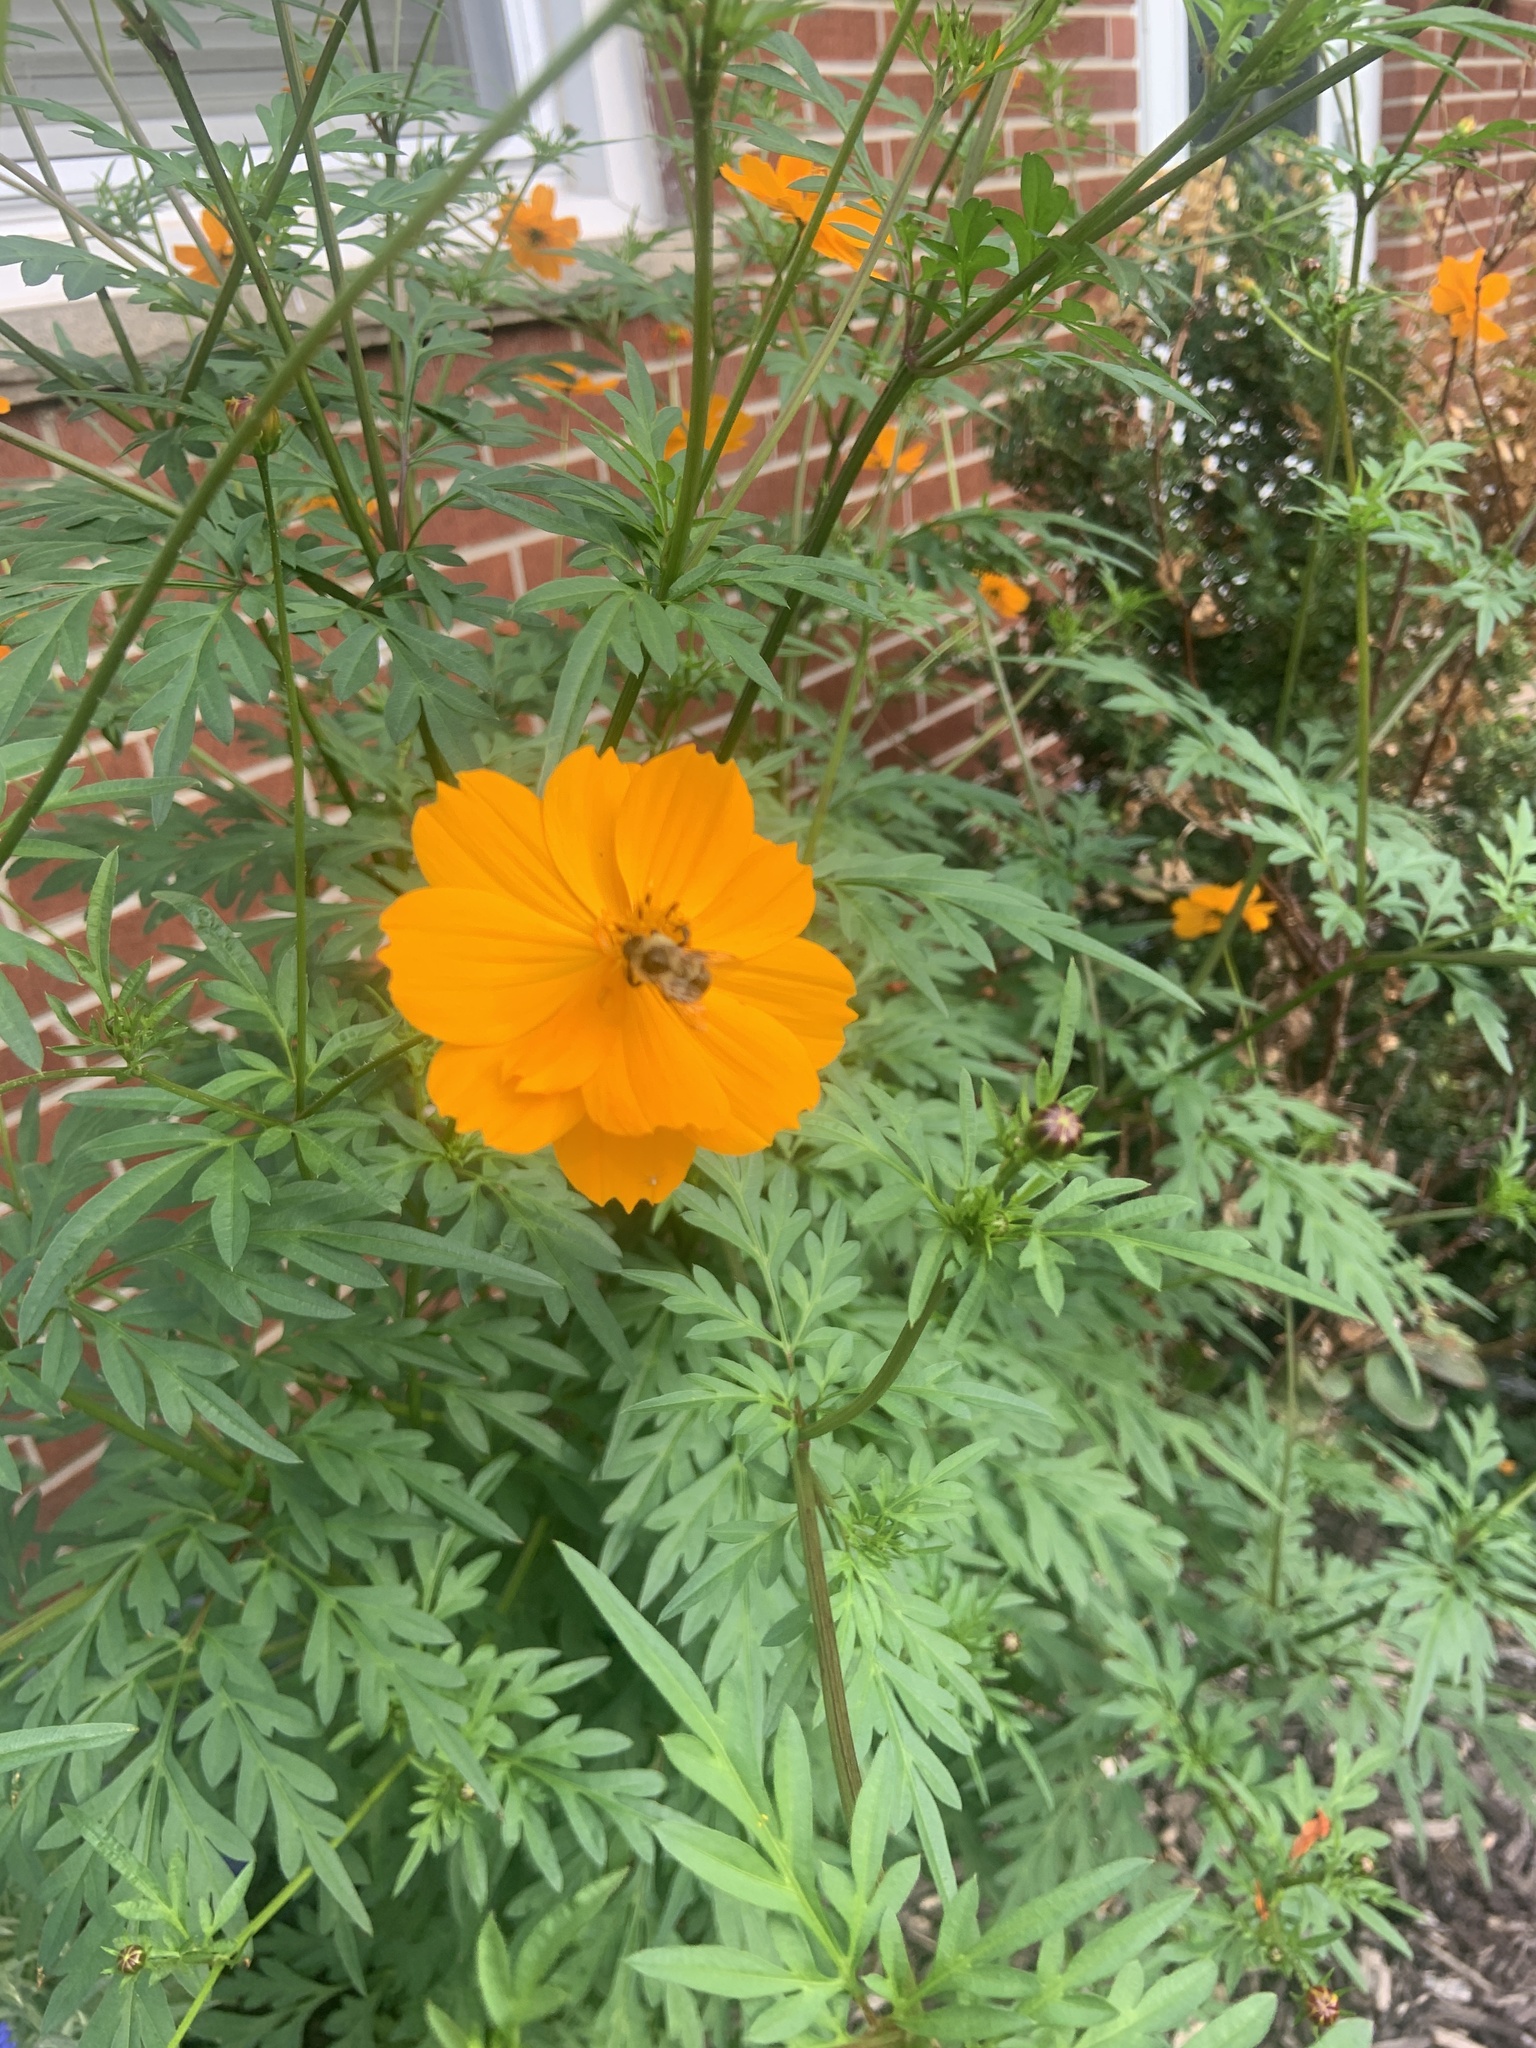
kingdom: Animalia
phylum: Arthropoda
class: Insecta
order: Hymenoptera
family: Apidae
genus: Bombus
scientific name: Bombus impatiens
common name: Common eastern bumble bee
